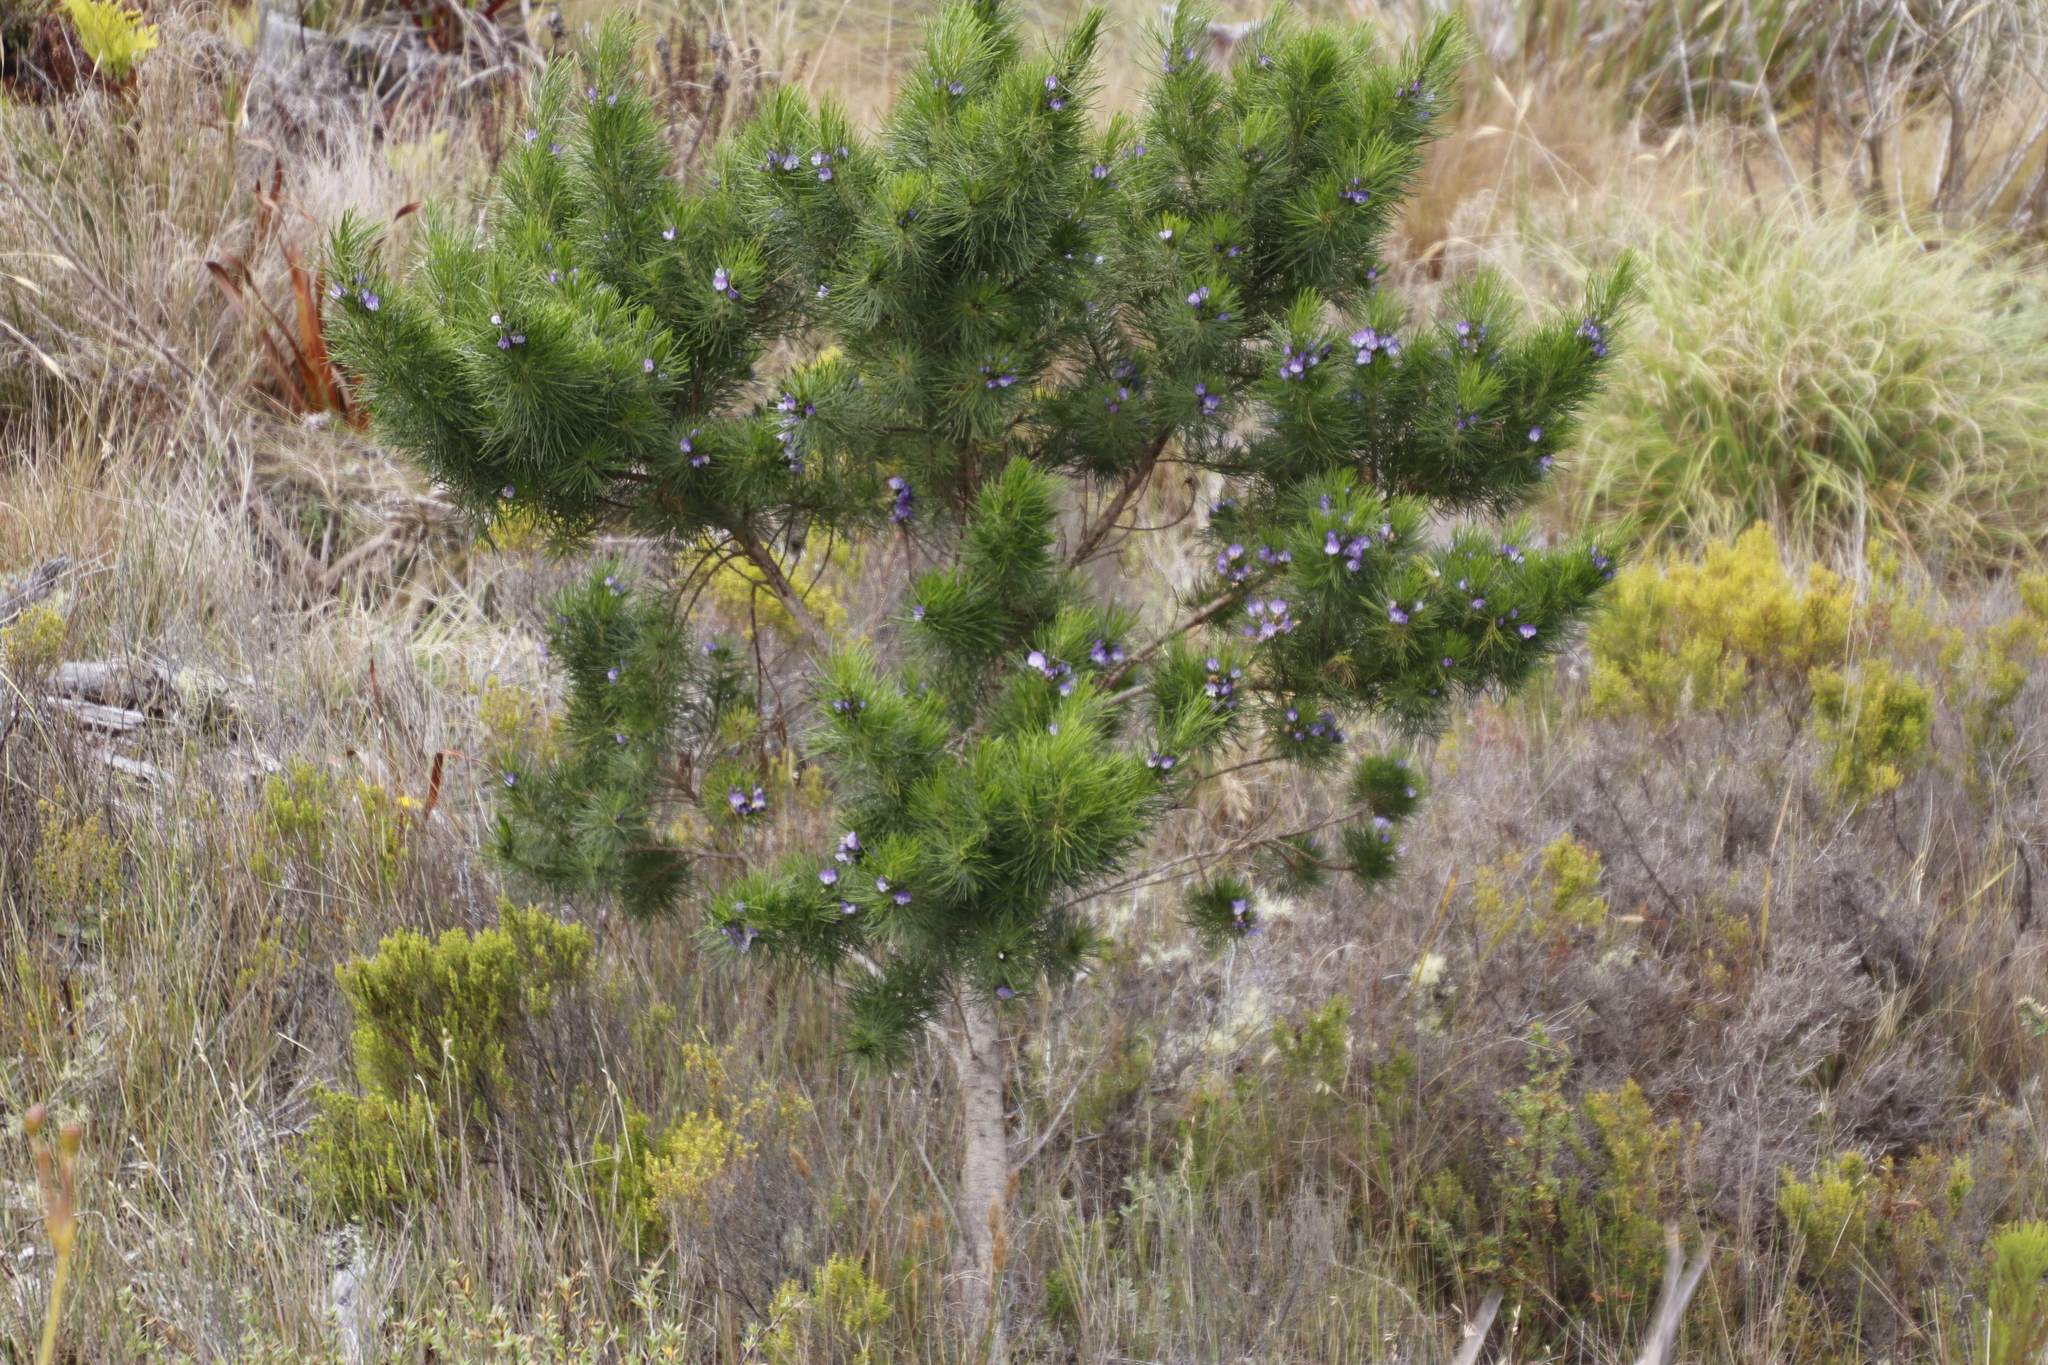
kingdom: Plantae
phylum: Tracheophyta
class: Magnoliopsida
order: Fabales
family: Fabaceae
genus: Psoralea
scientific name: Psoralea pinnata
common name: African scurfpea
